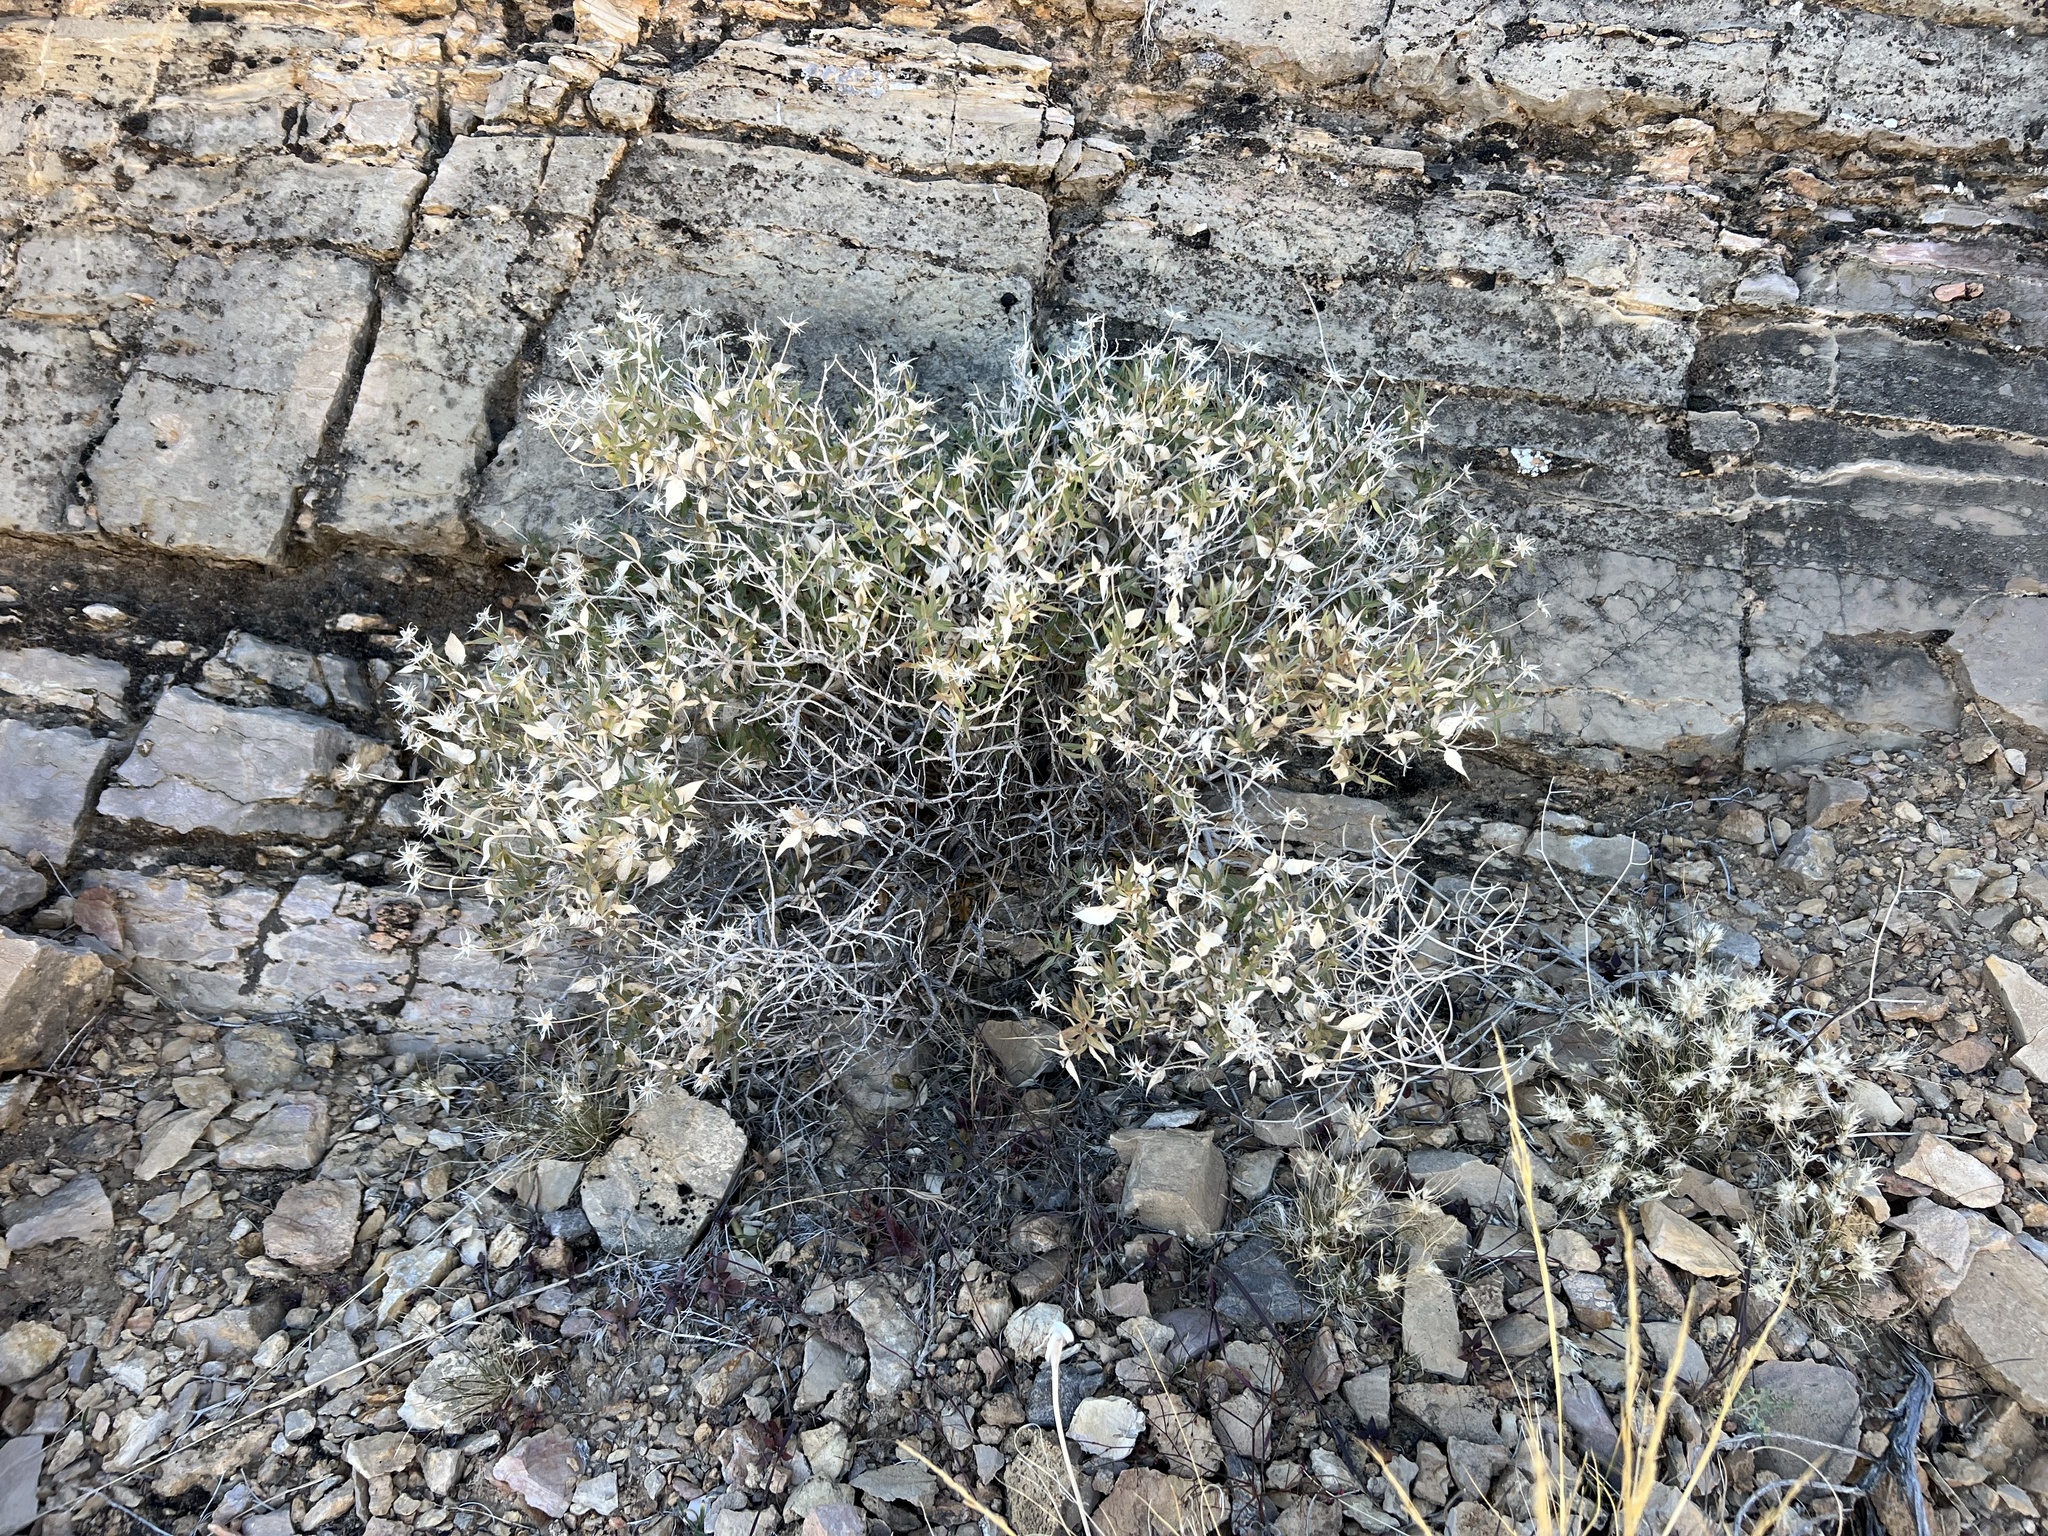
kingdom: Plantae
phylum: Tracheophyta
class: Magnoliopsida
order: Asterales
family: Asteraceae
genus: Brickellia
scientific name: Brickellia atractyloides
